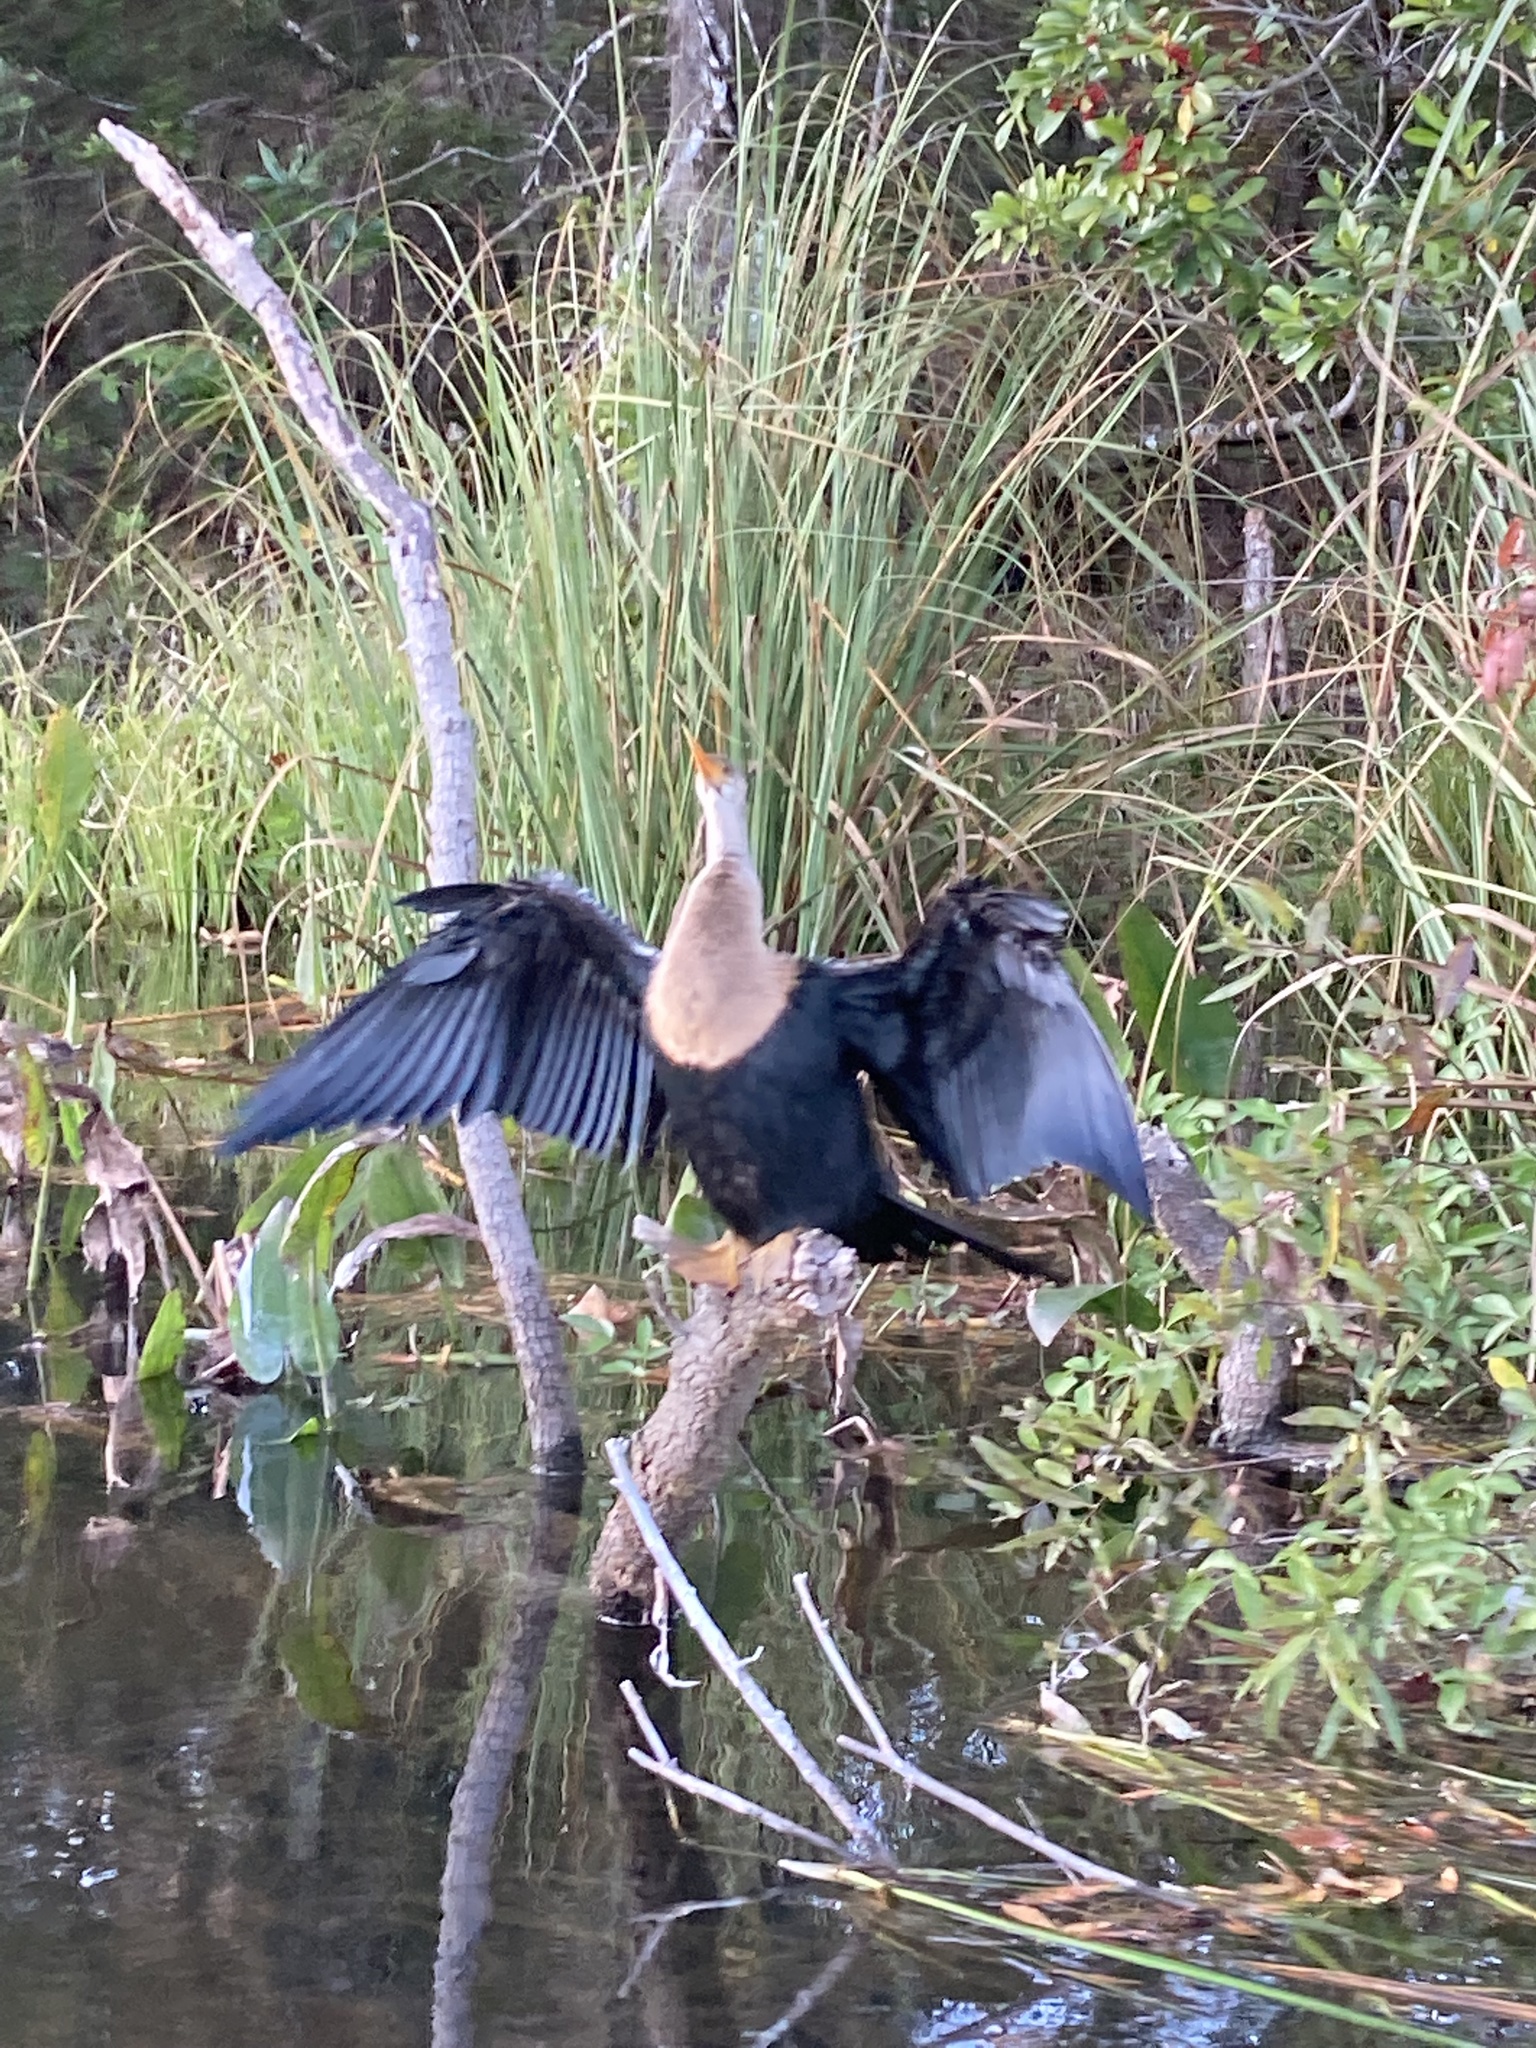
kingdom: Animalia
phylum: Chordata
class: Aves
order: Suliformes
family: Anhingidae
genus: Anhinga
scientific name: Anhinga anhinga
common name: Anhinga
